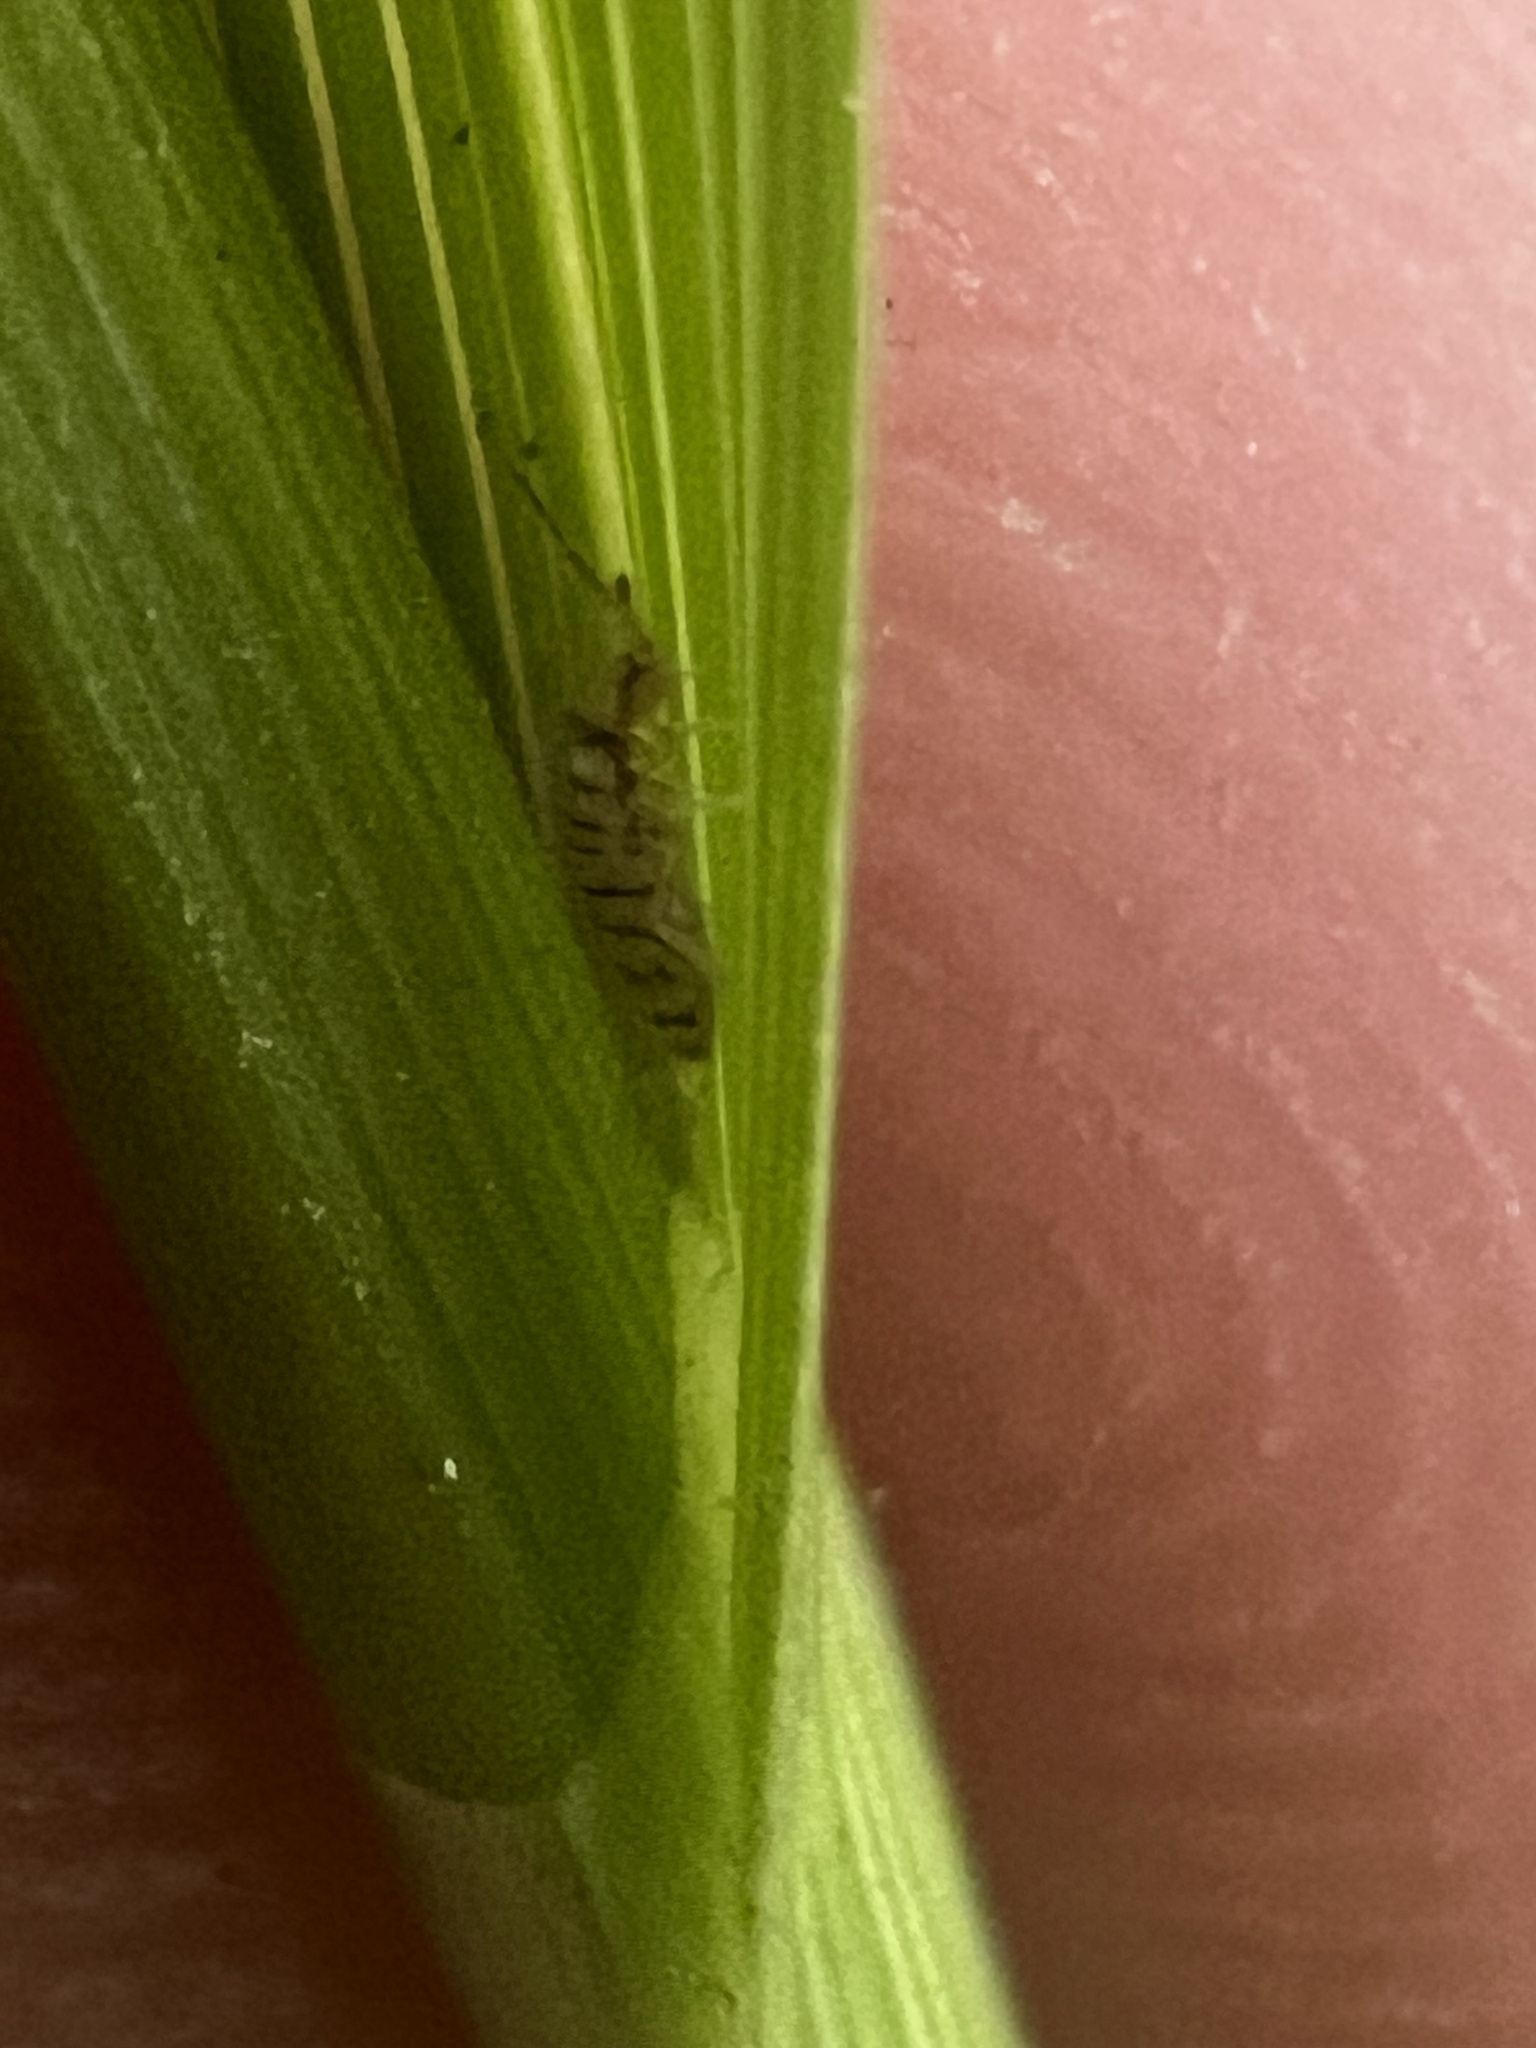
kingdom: Animalia
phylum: Arthropoda
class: Collembola
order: Entomobryomorpha
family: Entomobryidae
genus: Entomobrya
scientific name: Entomobrya multifasciata
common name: Springtail
